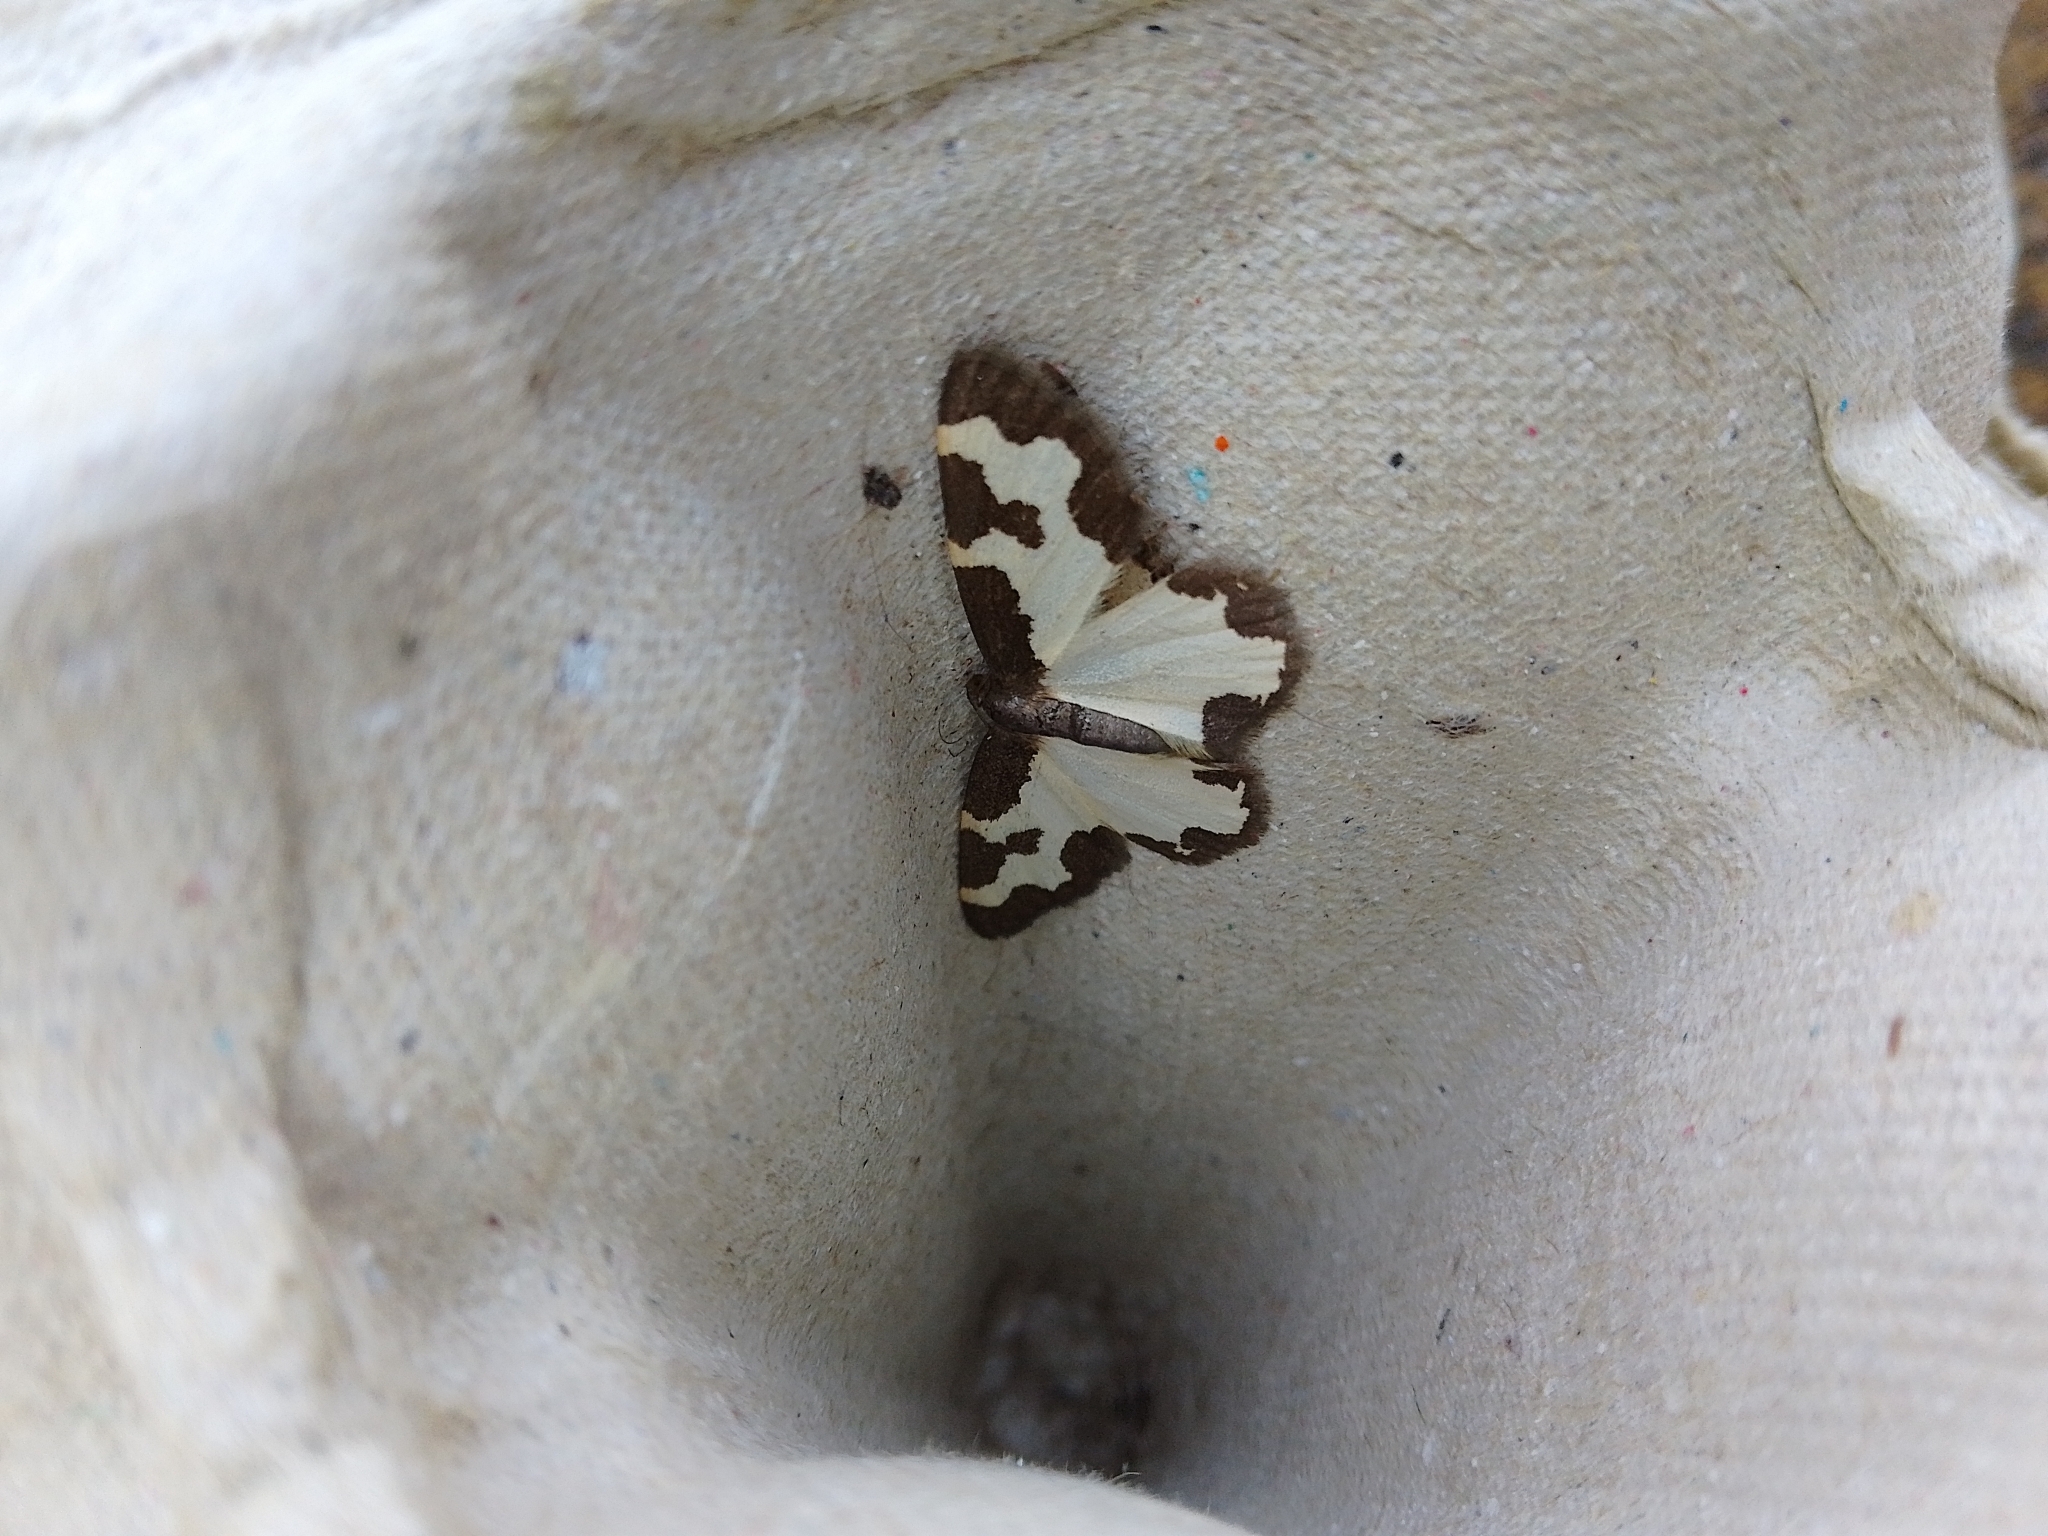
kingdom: Animalia
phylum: Arthropoda
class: Insecta
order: Lepidoptera
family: Geometridae
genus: Lomaspilis
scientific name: Lomaspilis marginata
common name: Clouded border
